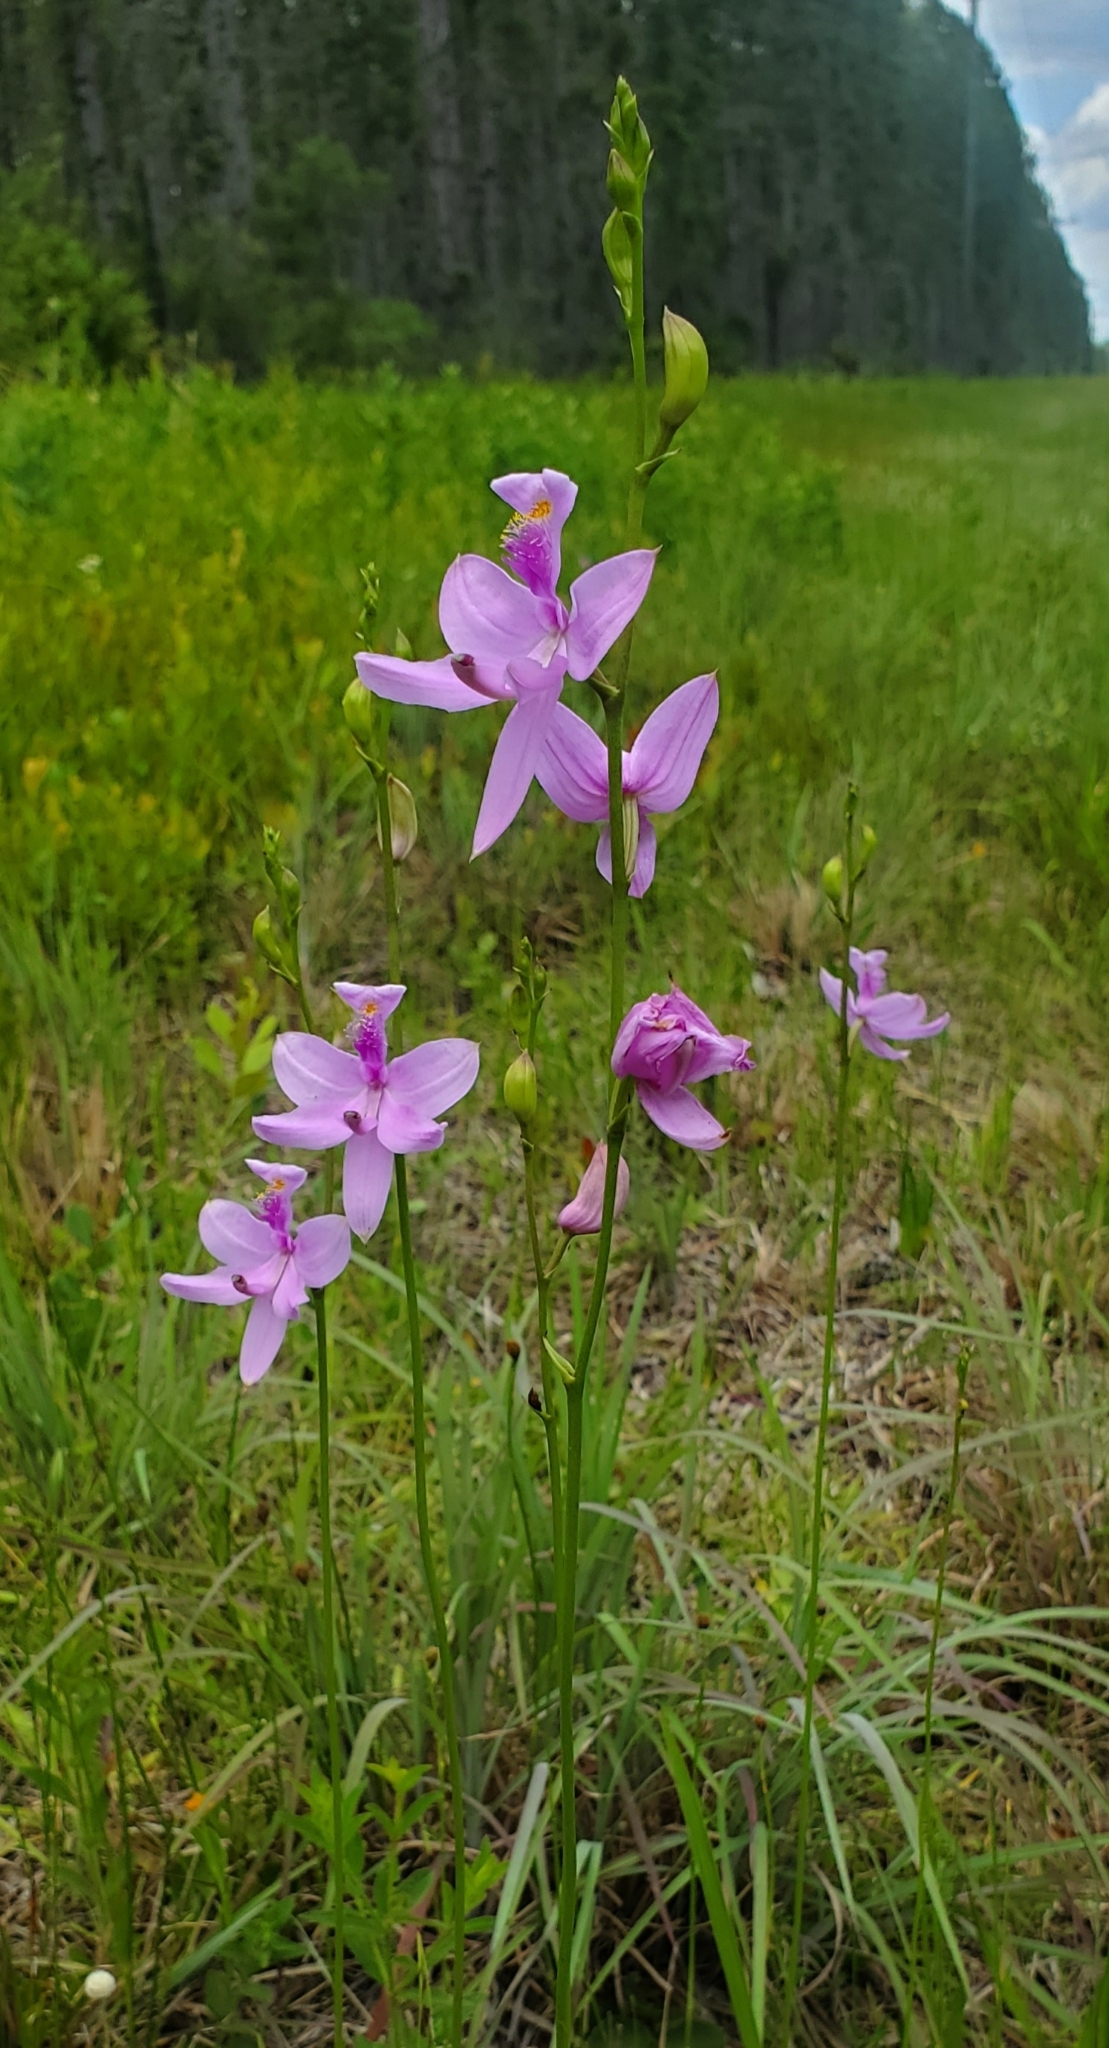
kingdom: Plantae
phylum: Tracheophyta
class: Liliopsida
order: Asparagales
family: Orchidaceae
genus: Calopogon
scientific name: Calopogon tuberosus
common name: Grass-pink
